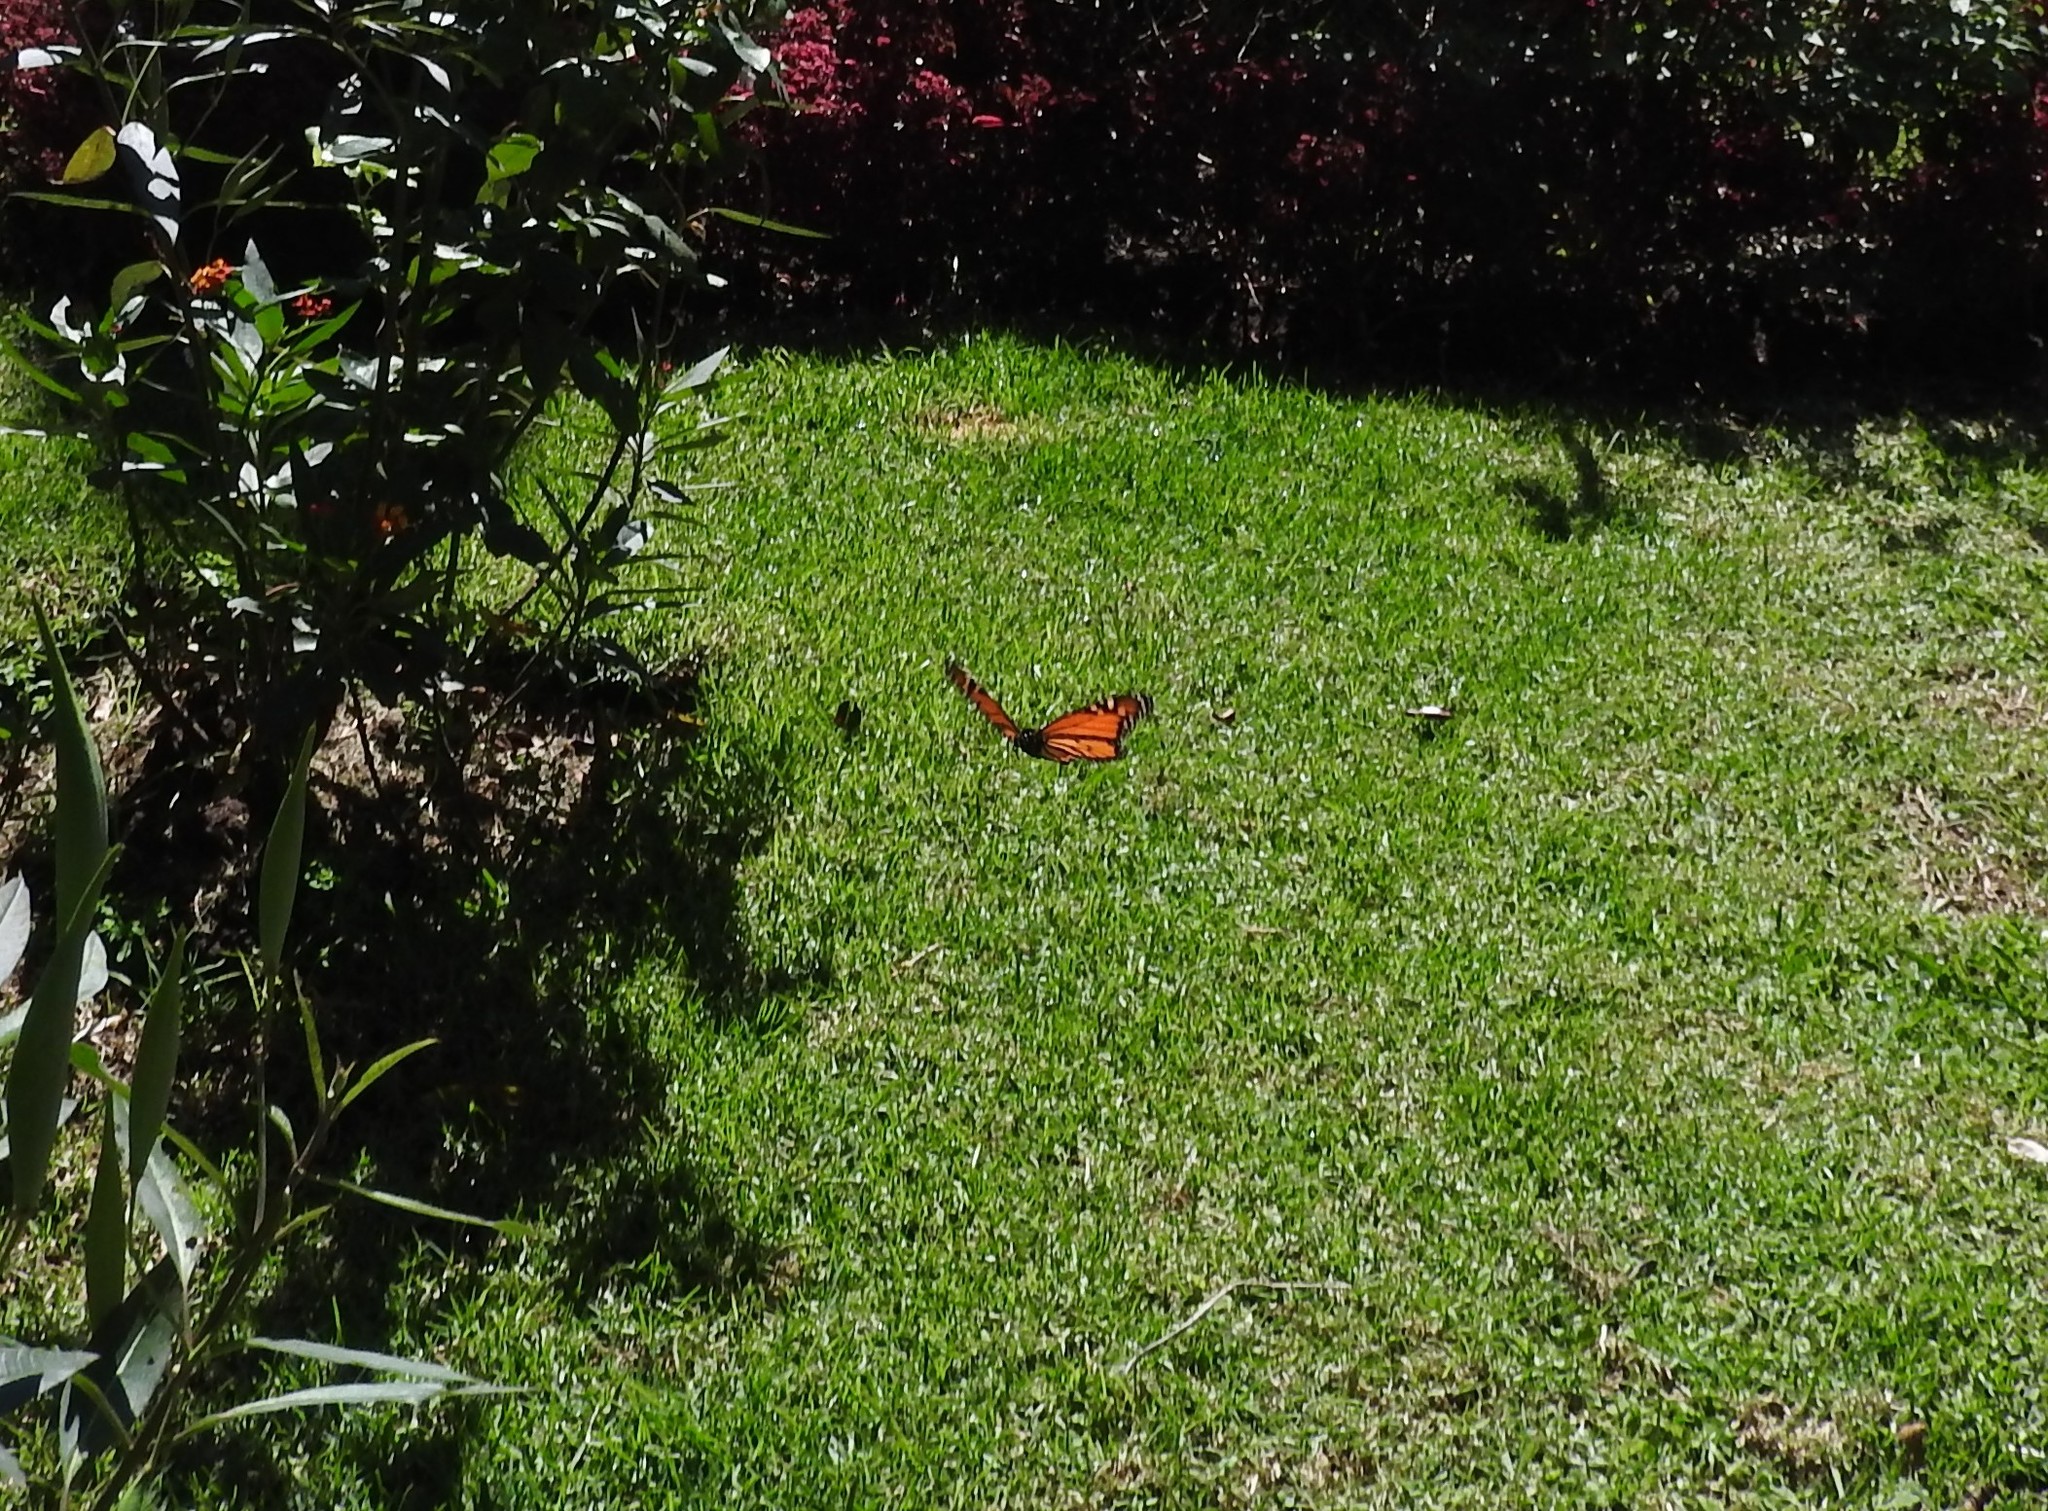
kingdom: Animalia
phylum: Arthropoda
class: Insecta
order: Lepidoptera
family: Nymphalidae
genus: Danaus
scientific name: Danaus plexippus
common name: Monarch
